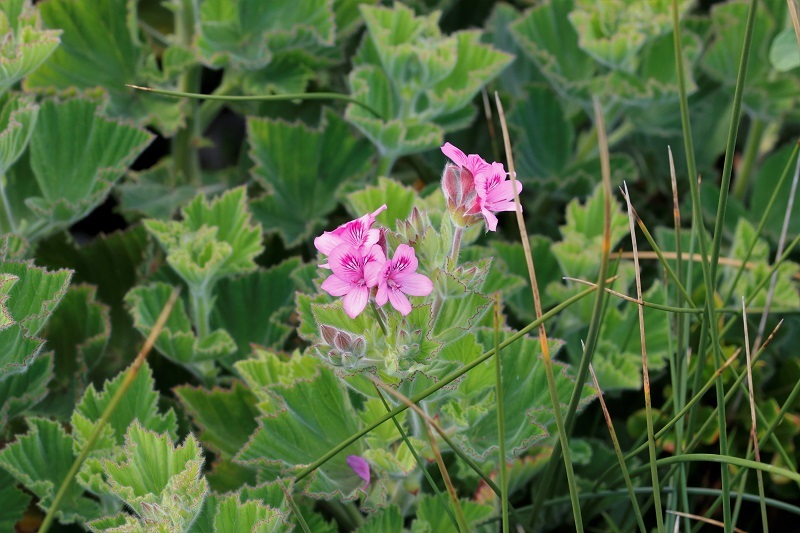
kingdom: Plantae
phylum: Tracheophyta
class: Magnoliopsida
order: Geraniales
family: Geraniaceae
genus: Pelargonium
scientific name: Pelargonium cucullatum
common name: Tree pelargonium
